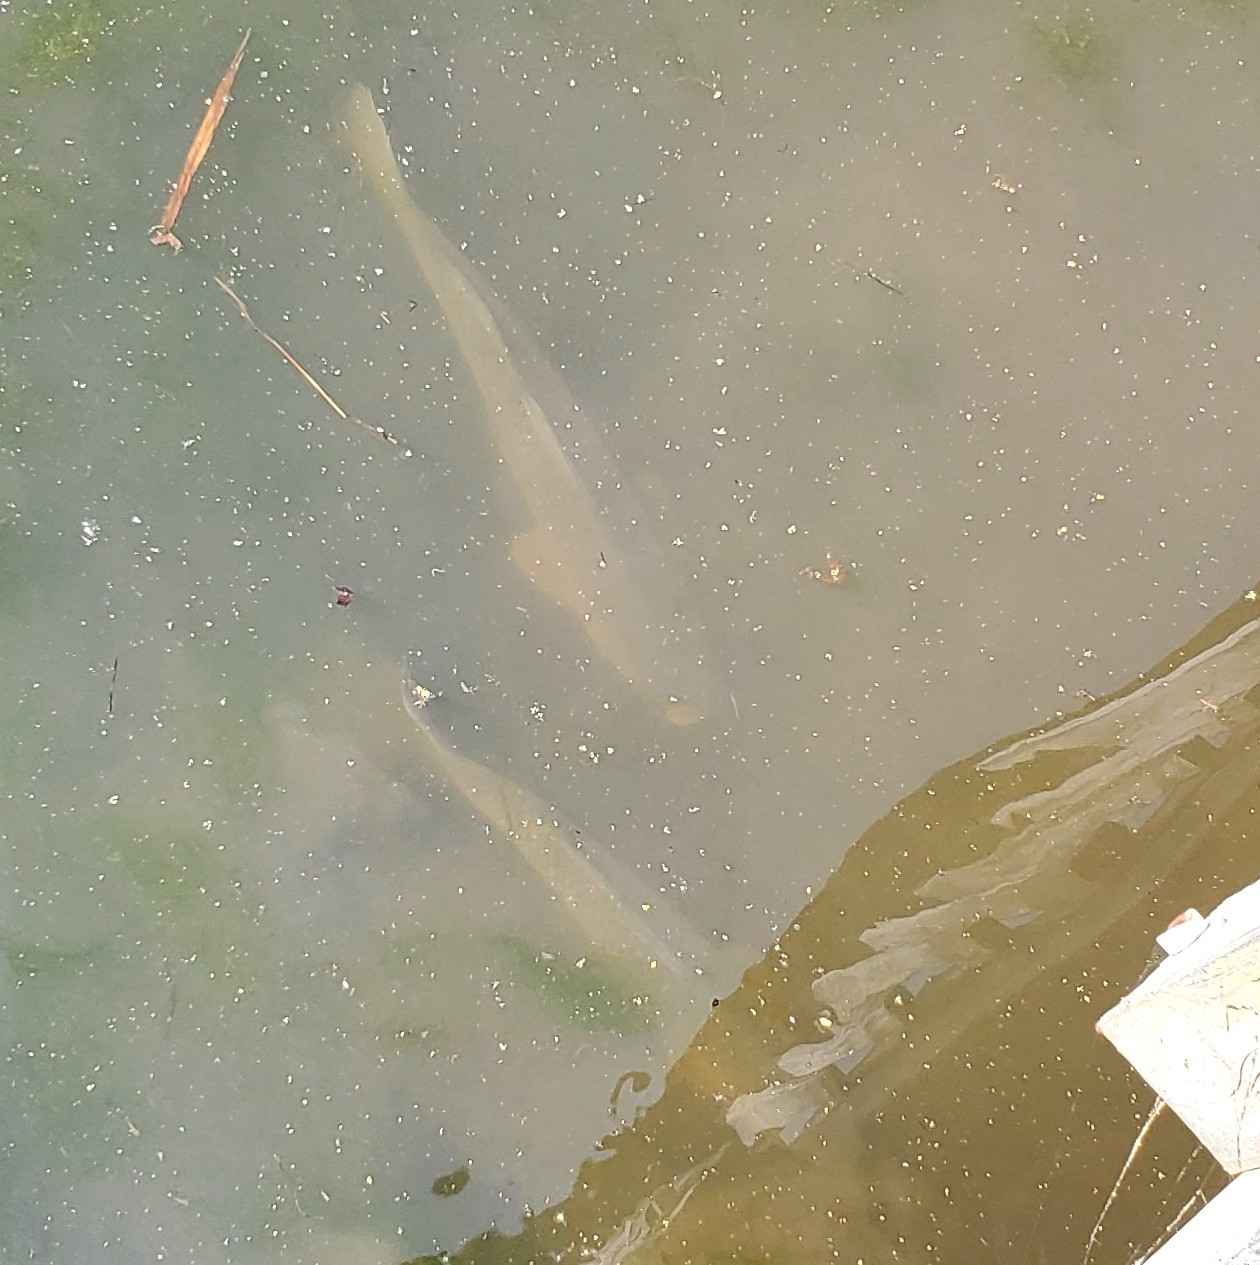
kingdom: Animalia
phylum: Chordata
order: Cypriniformes
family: Cyprinidae
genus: Cyprinus
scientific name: Cyprinus carpio
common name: Common carp
